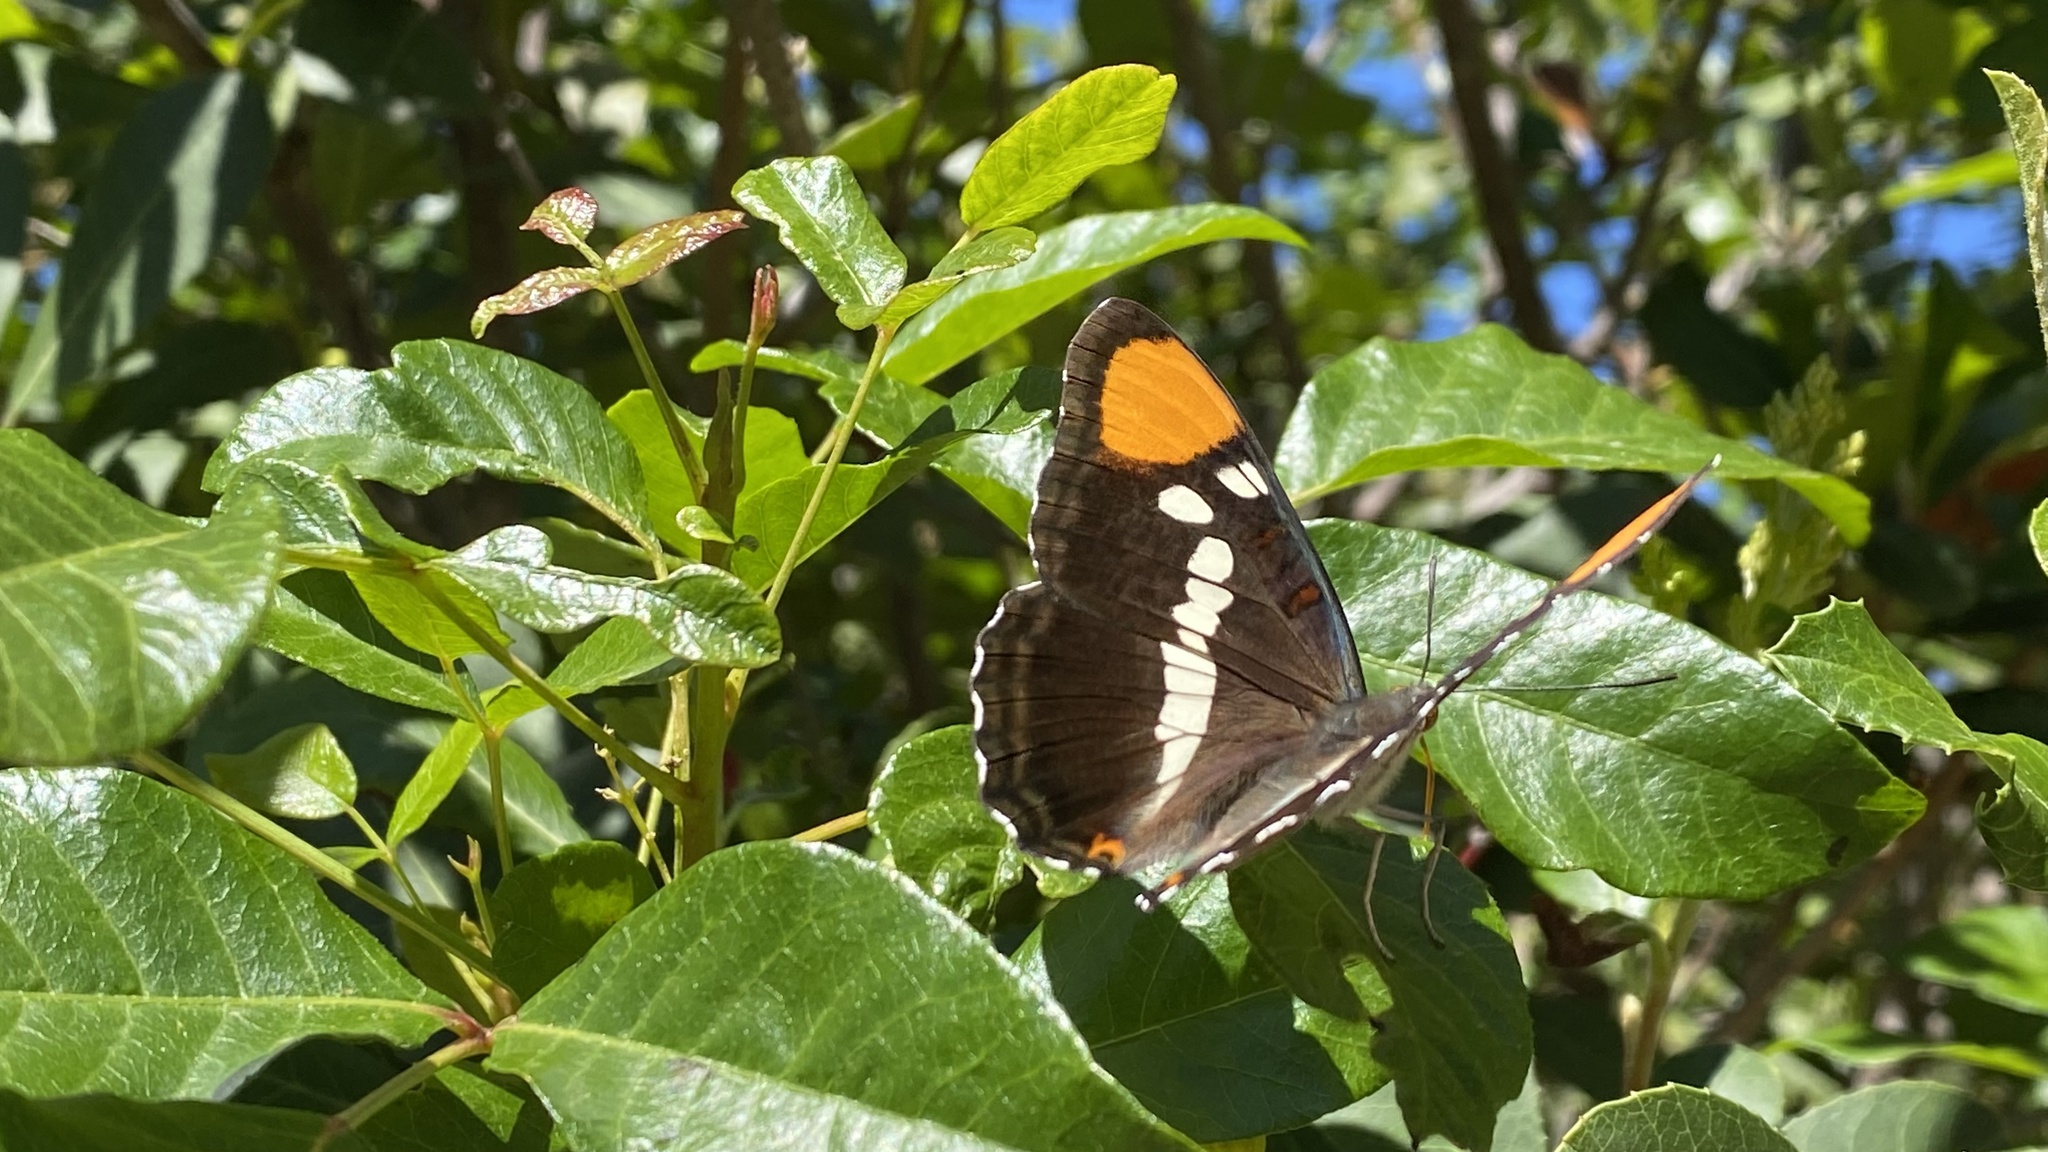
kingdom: Animalia
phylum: Arthropoda
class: Insecta
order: Lepidoptera
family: Nymphalidae
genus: Limenitis
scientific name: Limenitis bredowii
